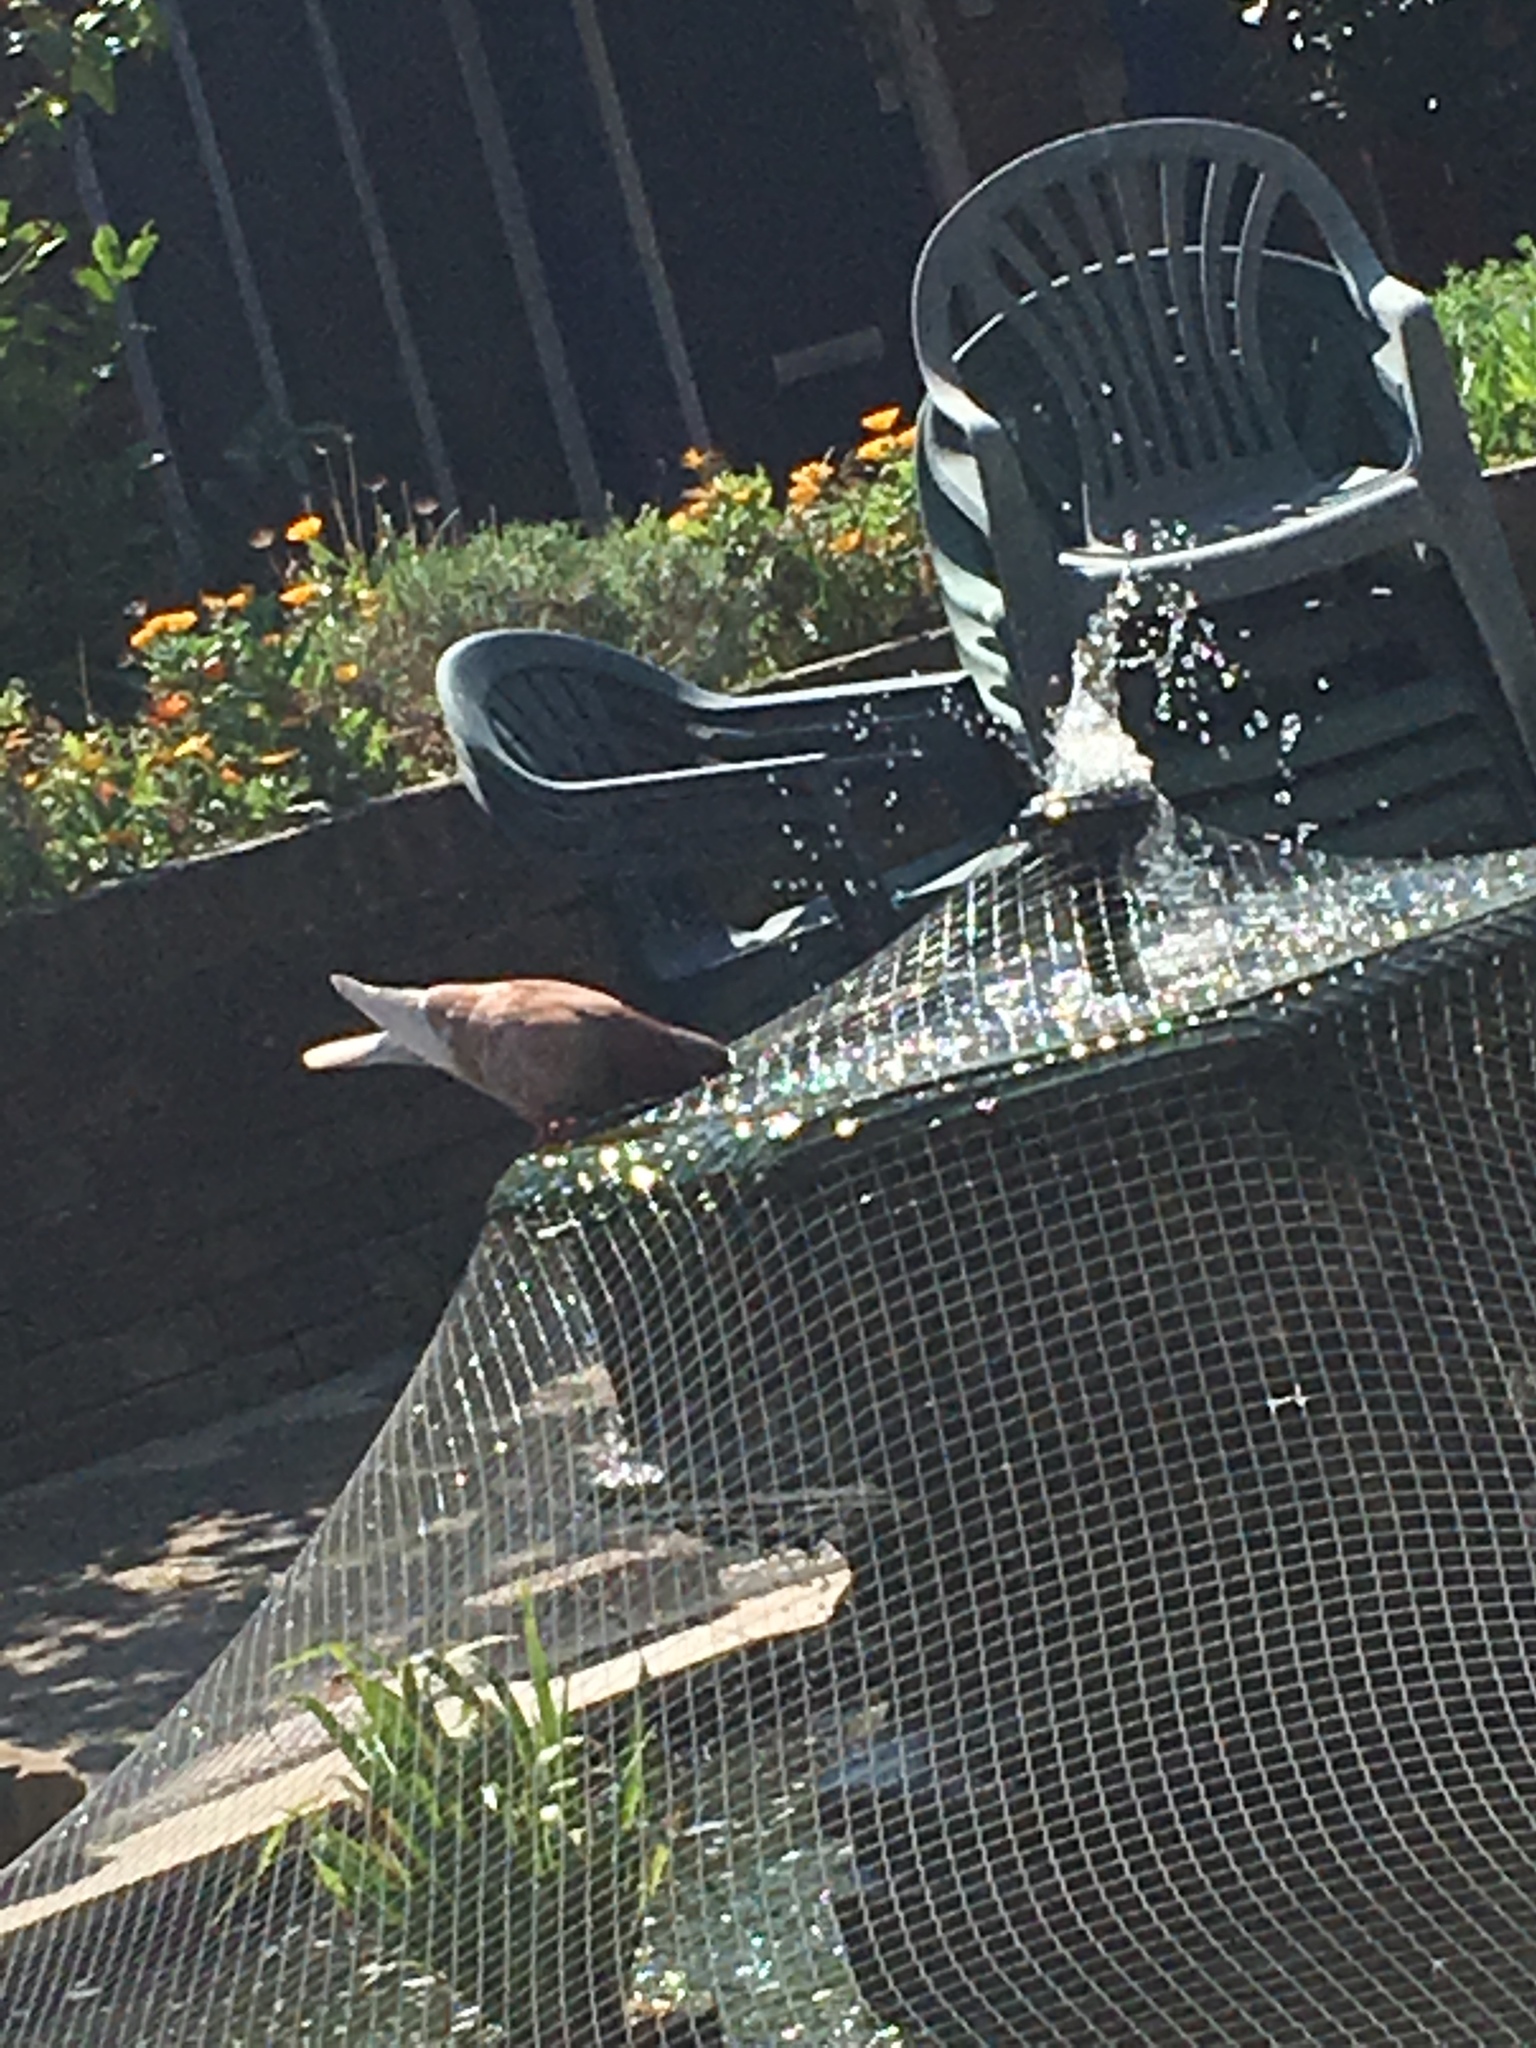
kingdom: Animalia
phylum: Chordata
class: Aves
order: Columbiformes
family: Columbidae
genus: Columba
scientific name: Columba livia
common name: Rock pigeon
